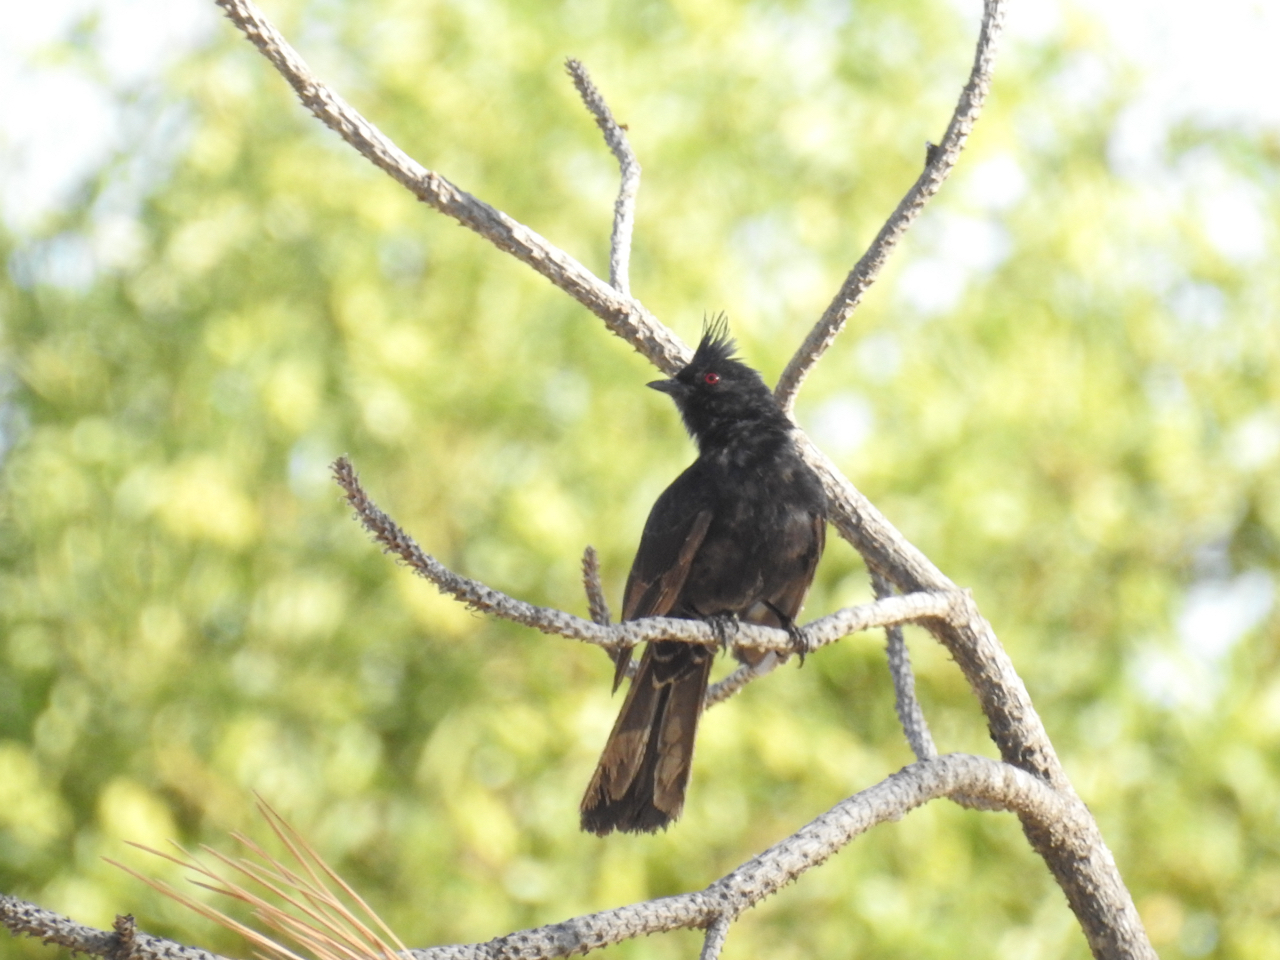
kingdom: Animalia
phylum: Chordata
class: Aves
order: Passeriformes
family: Ptilogonatidae
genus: Phainopepla
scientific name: Phainopepla nitens
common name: Phainopepla
